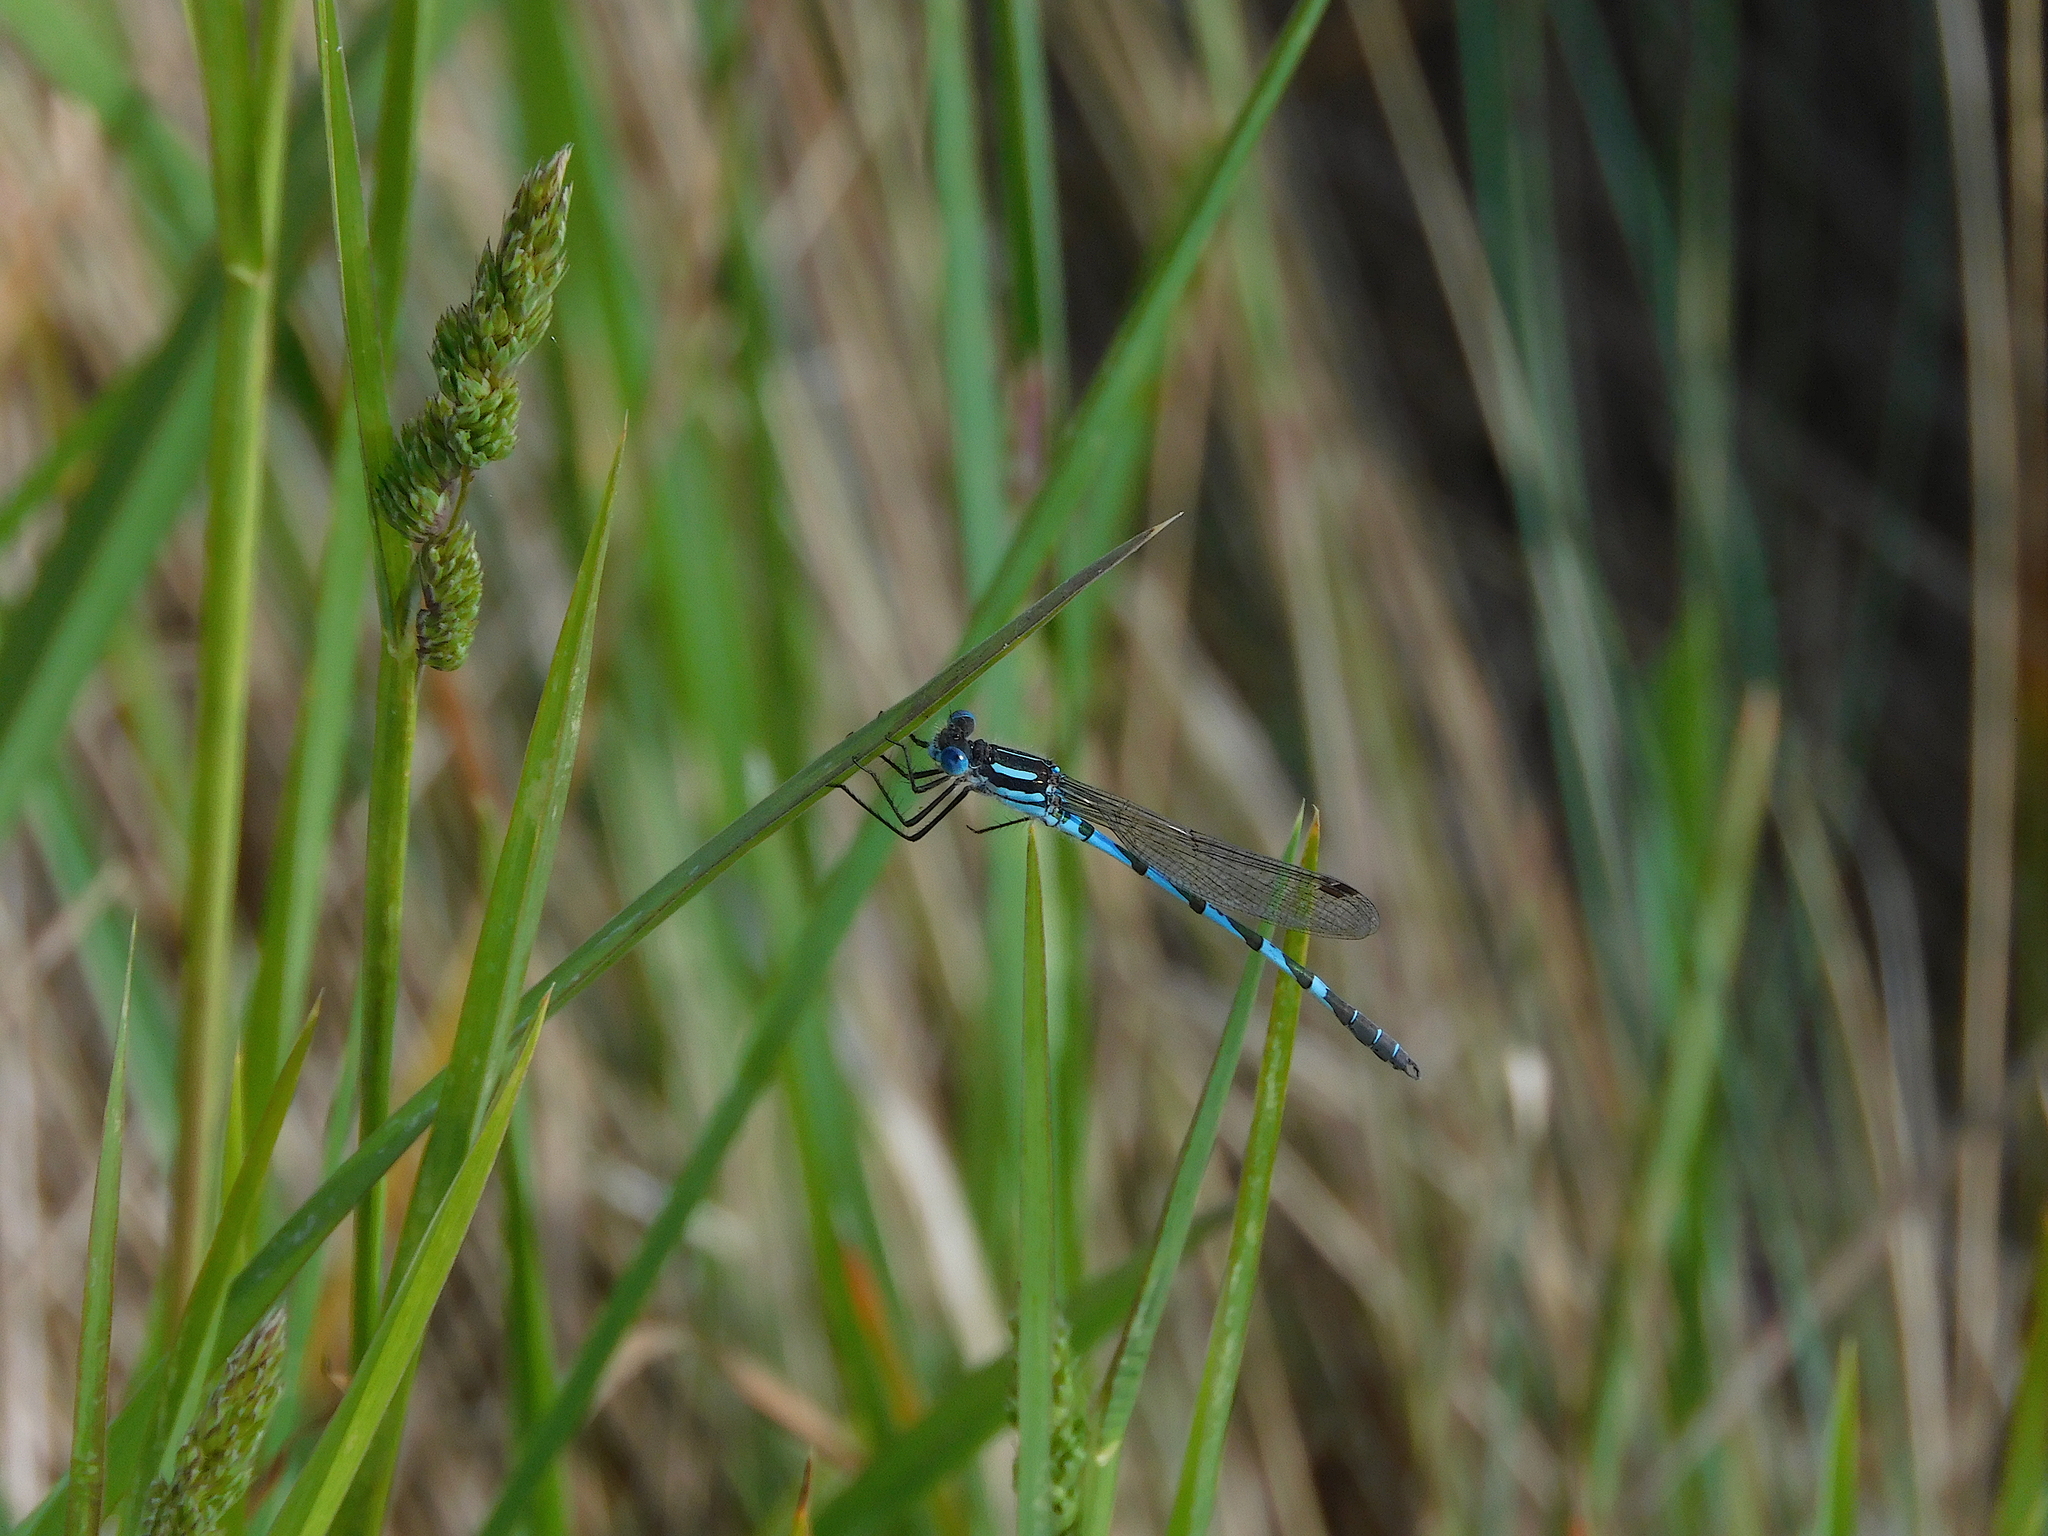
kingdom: Animalia
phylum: Arthropoda
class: Insecta
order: Odonata
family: Lestidae
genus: Austrolestes
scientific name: Austrolestes annulosus
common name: Blue ringtail
